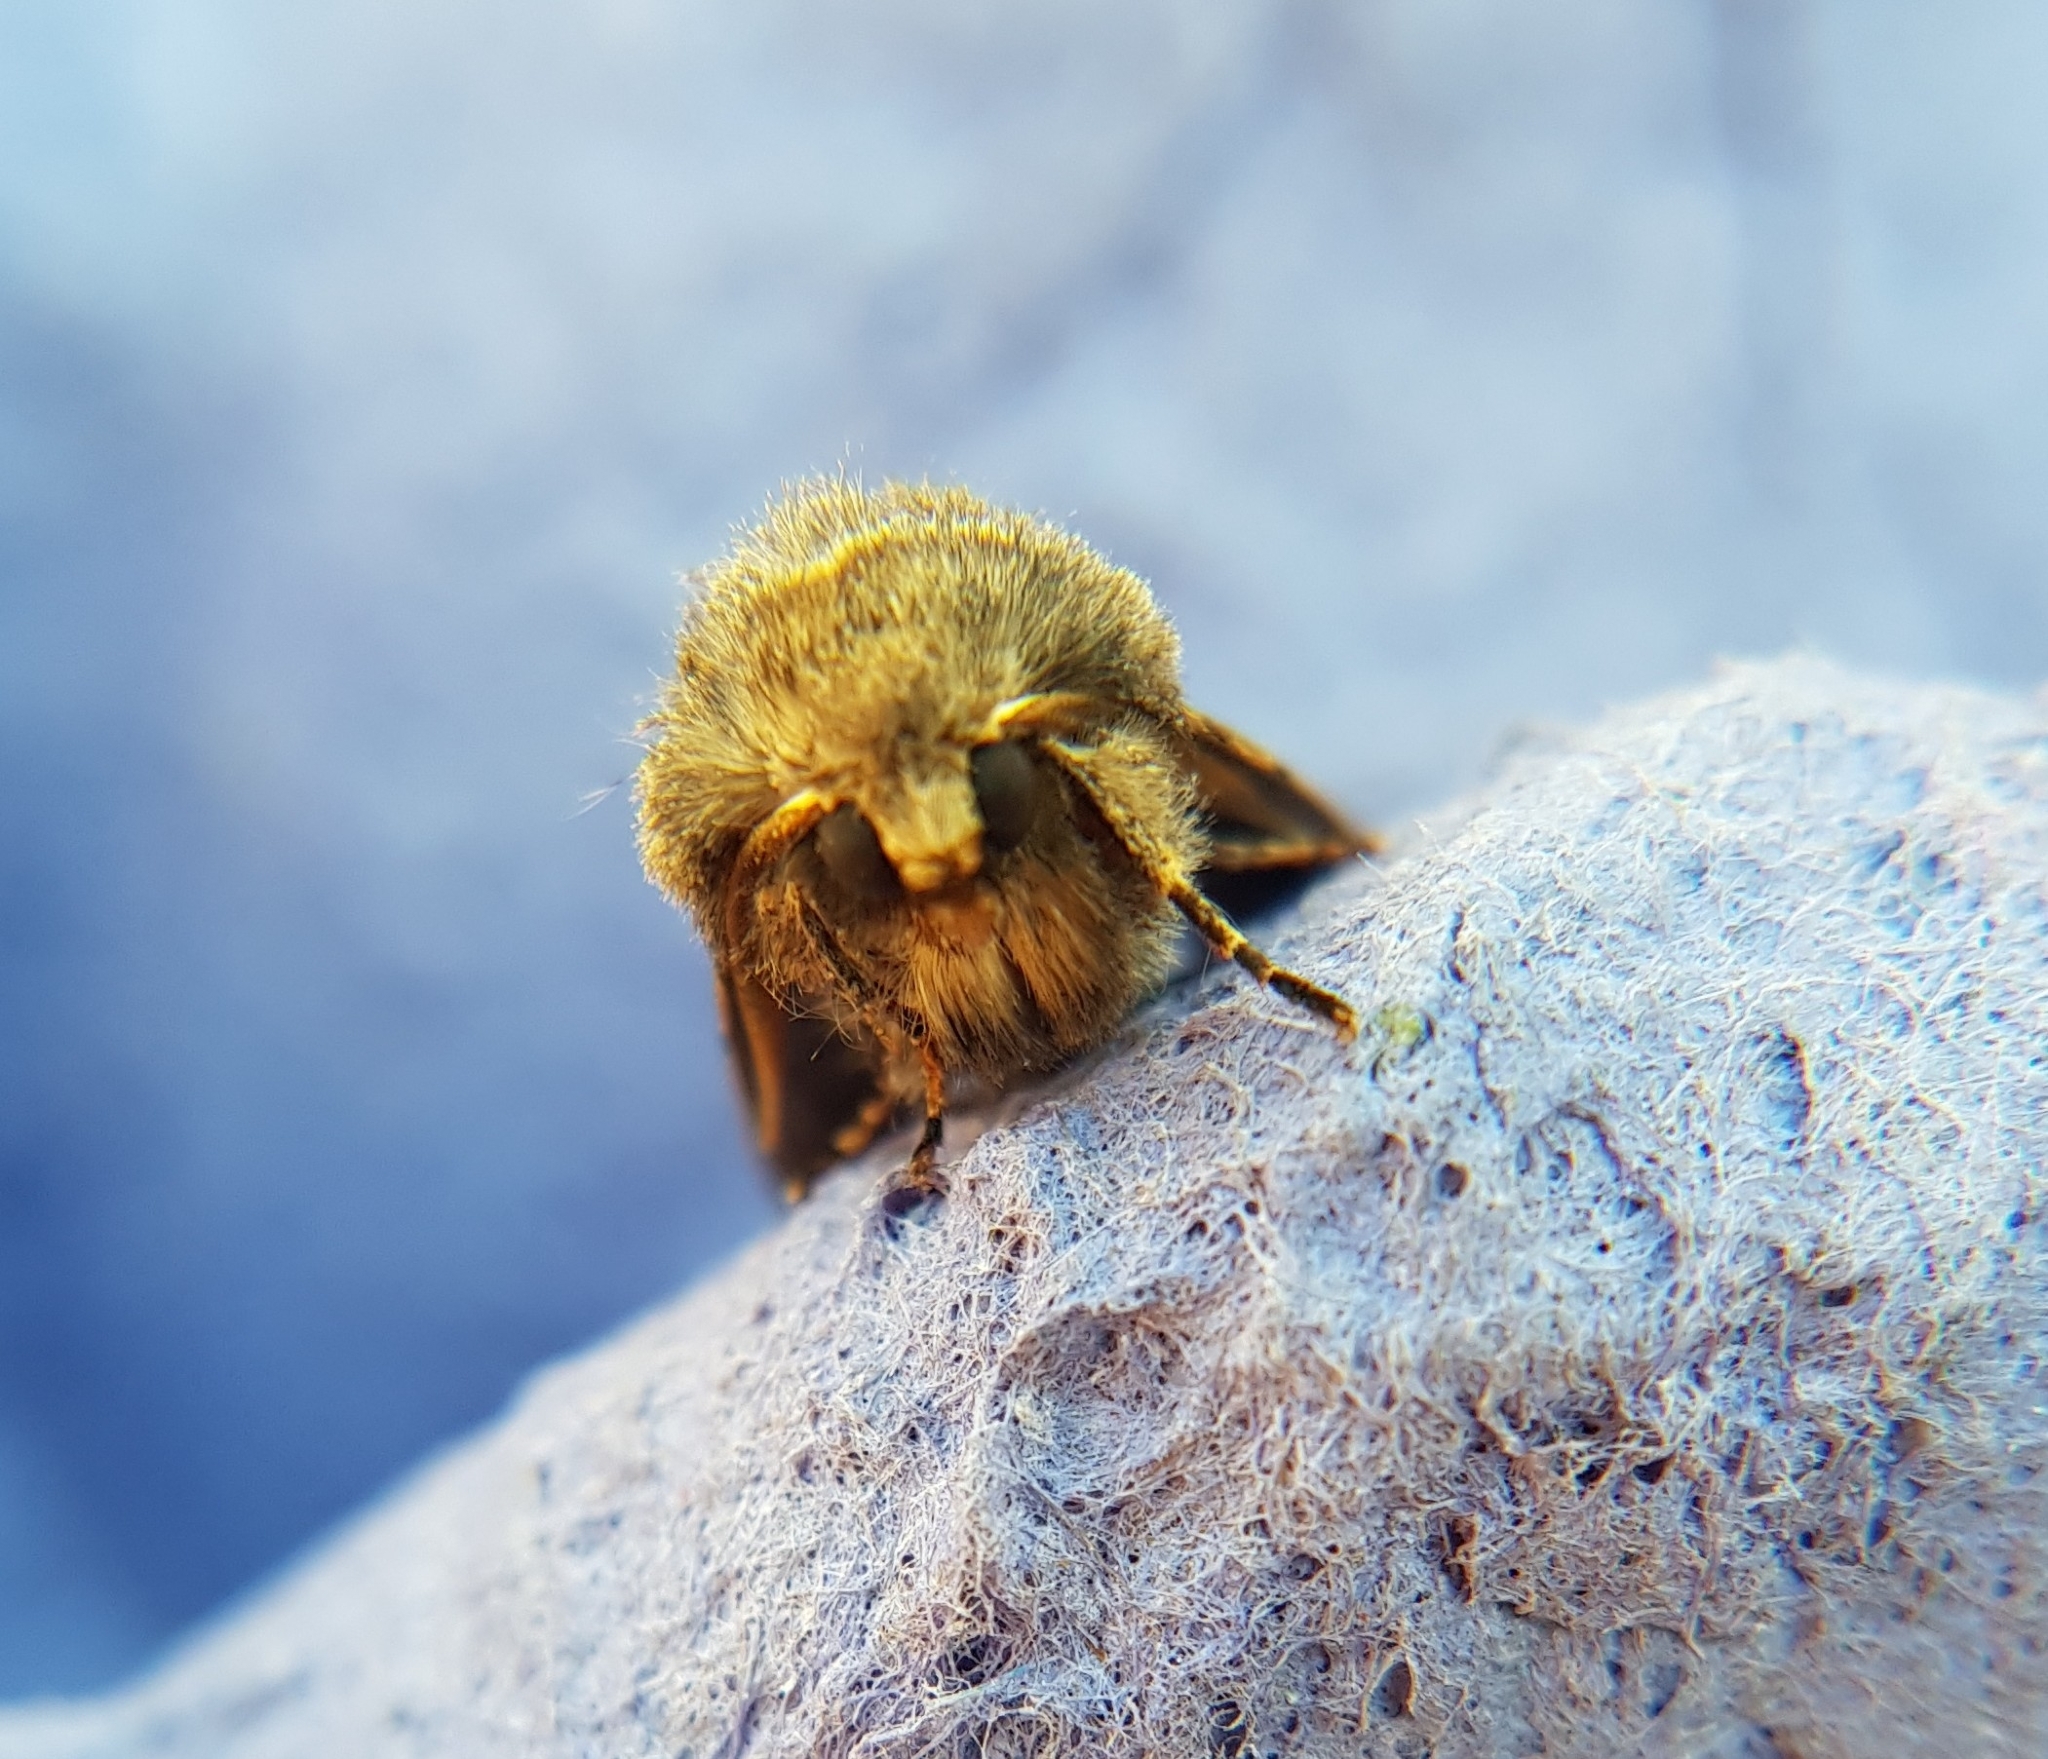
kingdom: Animalia
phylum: Arthropoda
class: Insecta
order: Lepidoptera
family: Noctuidae
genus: Orthosia
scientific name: Orthosia gothica
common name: Hebrew character
